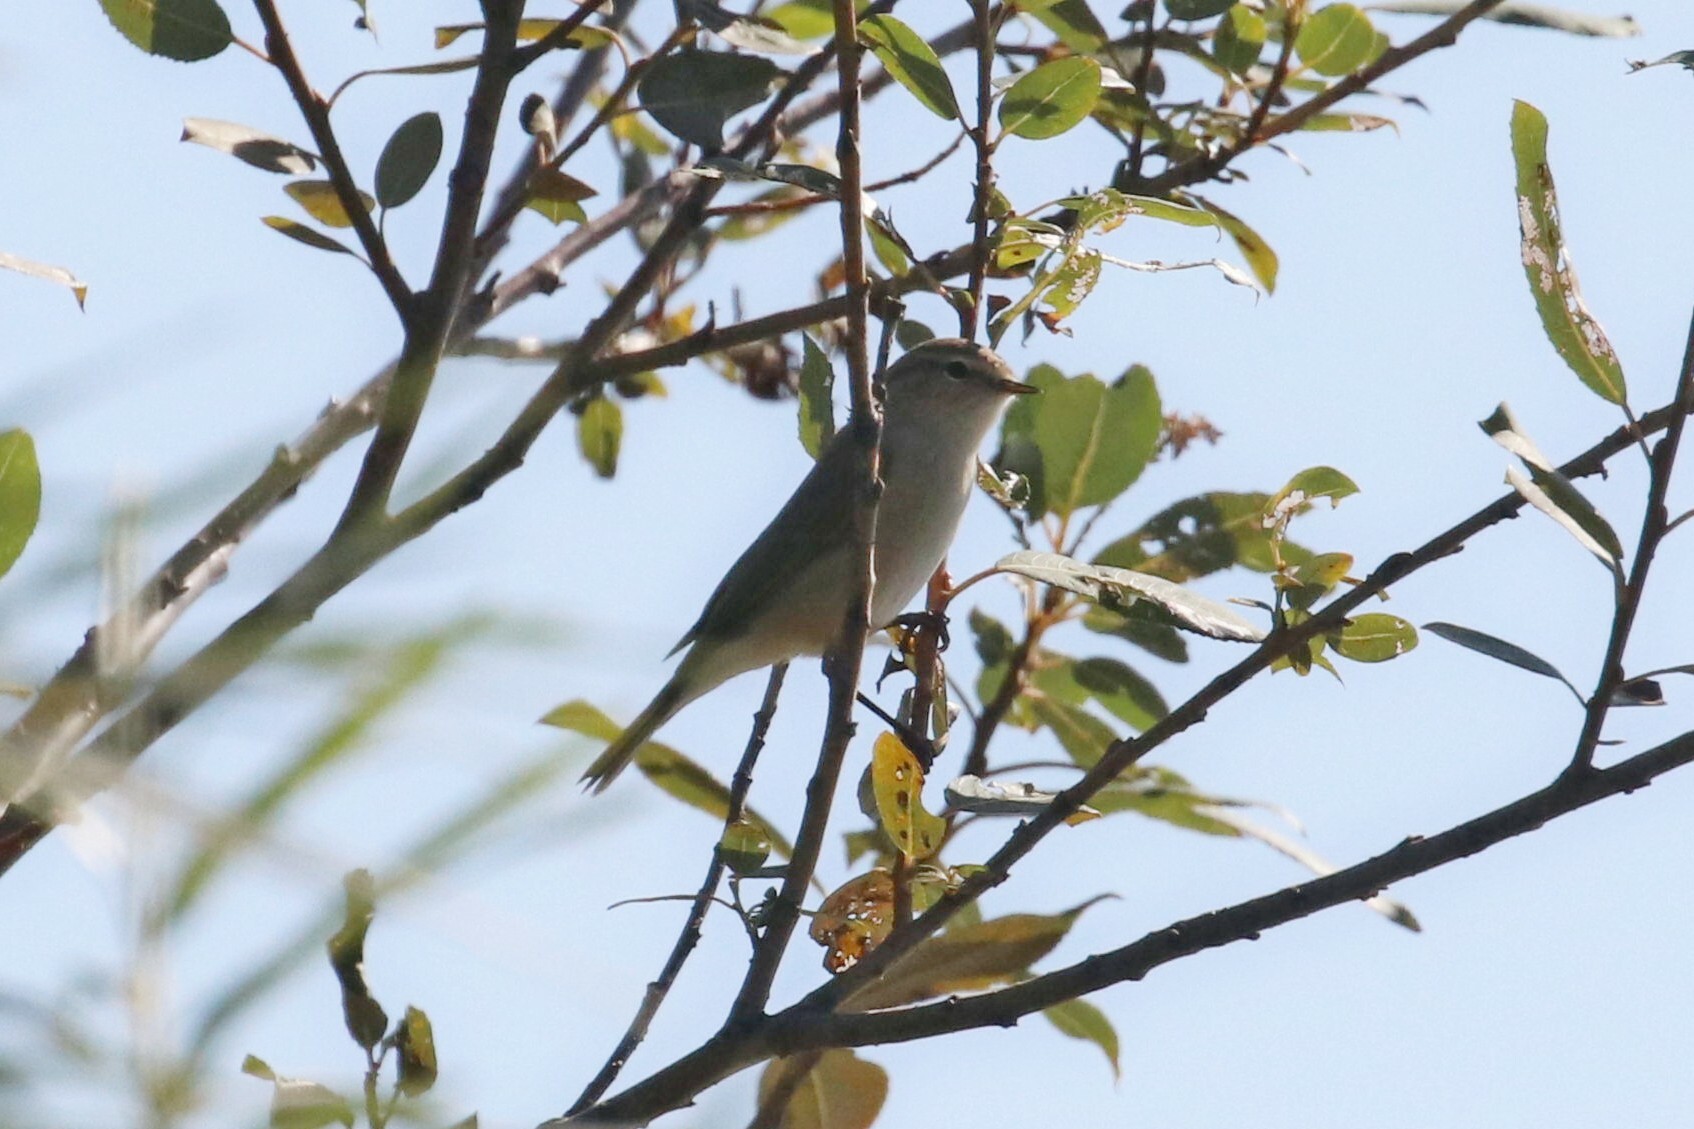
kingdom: Animalia
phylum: Chordata
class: Aves
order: Passeriformes
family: Phylloscopidae
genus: Phylloscopus
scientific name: Phylloscopus collybita
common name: Common chiffchaff
